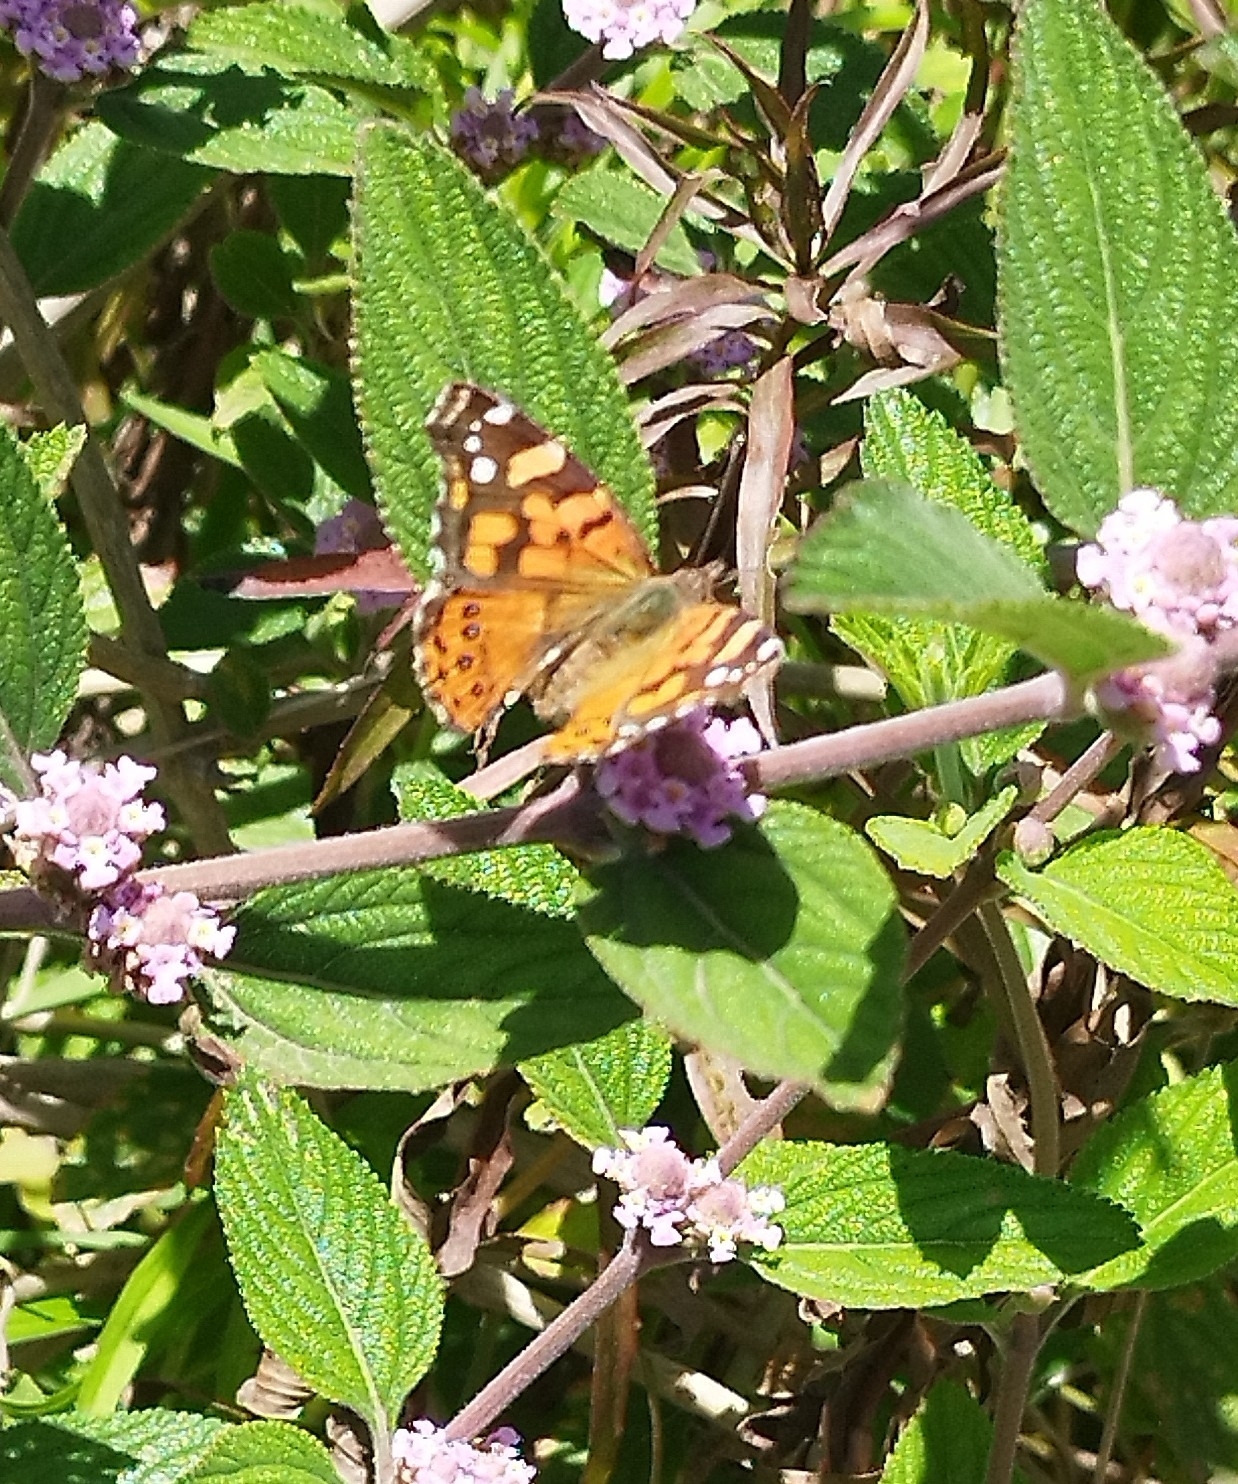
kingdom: Animalia
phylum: Arthropoda
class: Insecta
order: Lepidoptera
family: Nymphalidae
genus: Vanessa
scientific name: Vanessa carye
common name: Subtropical lady
